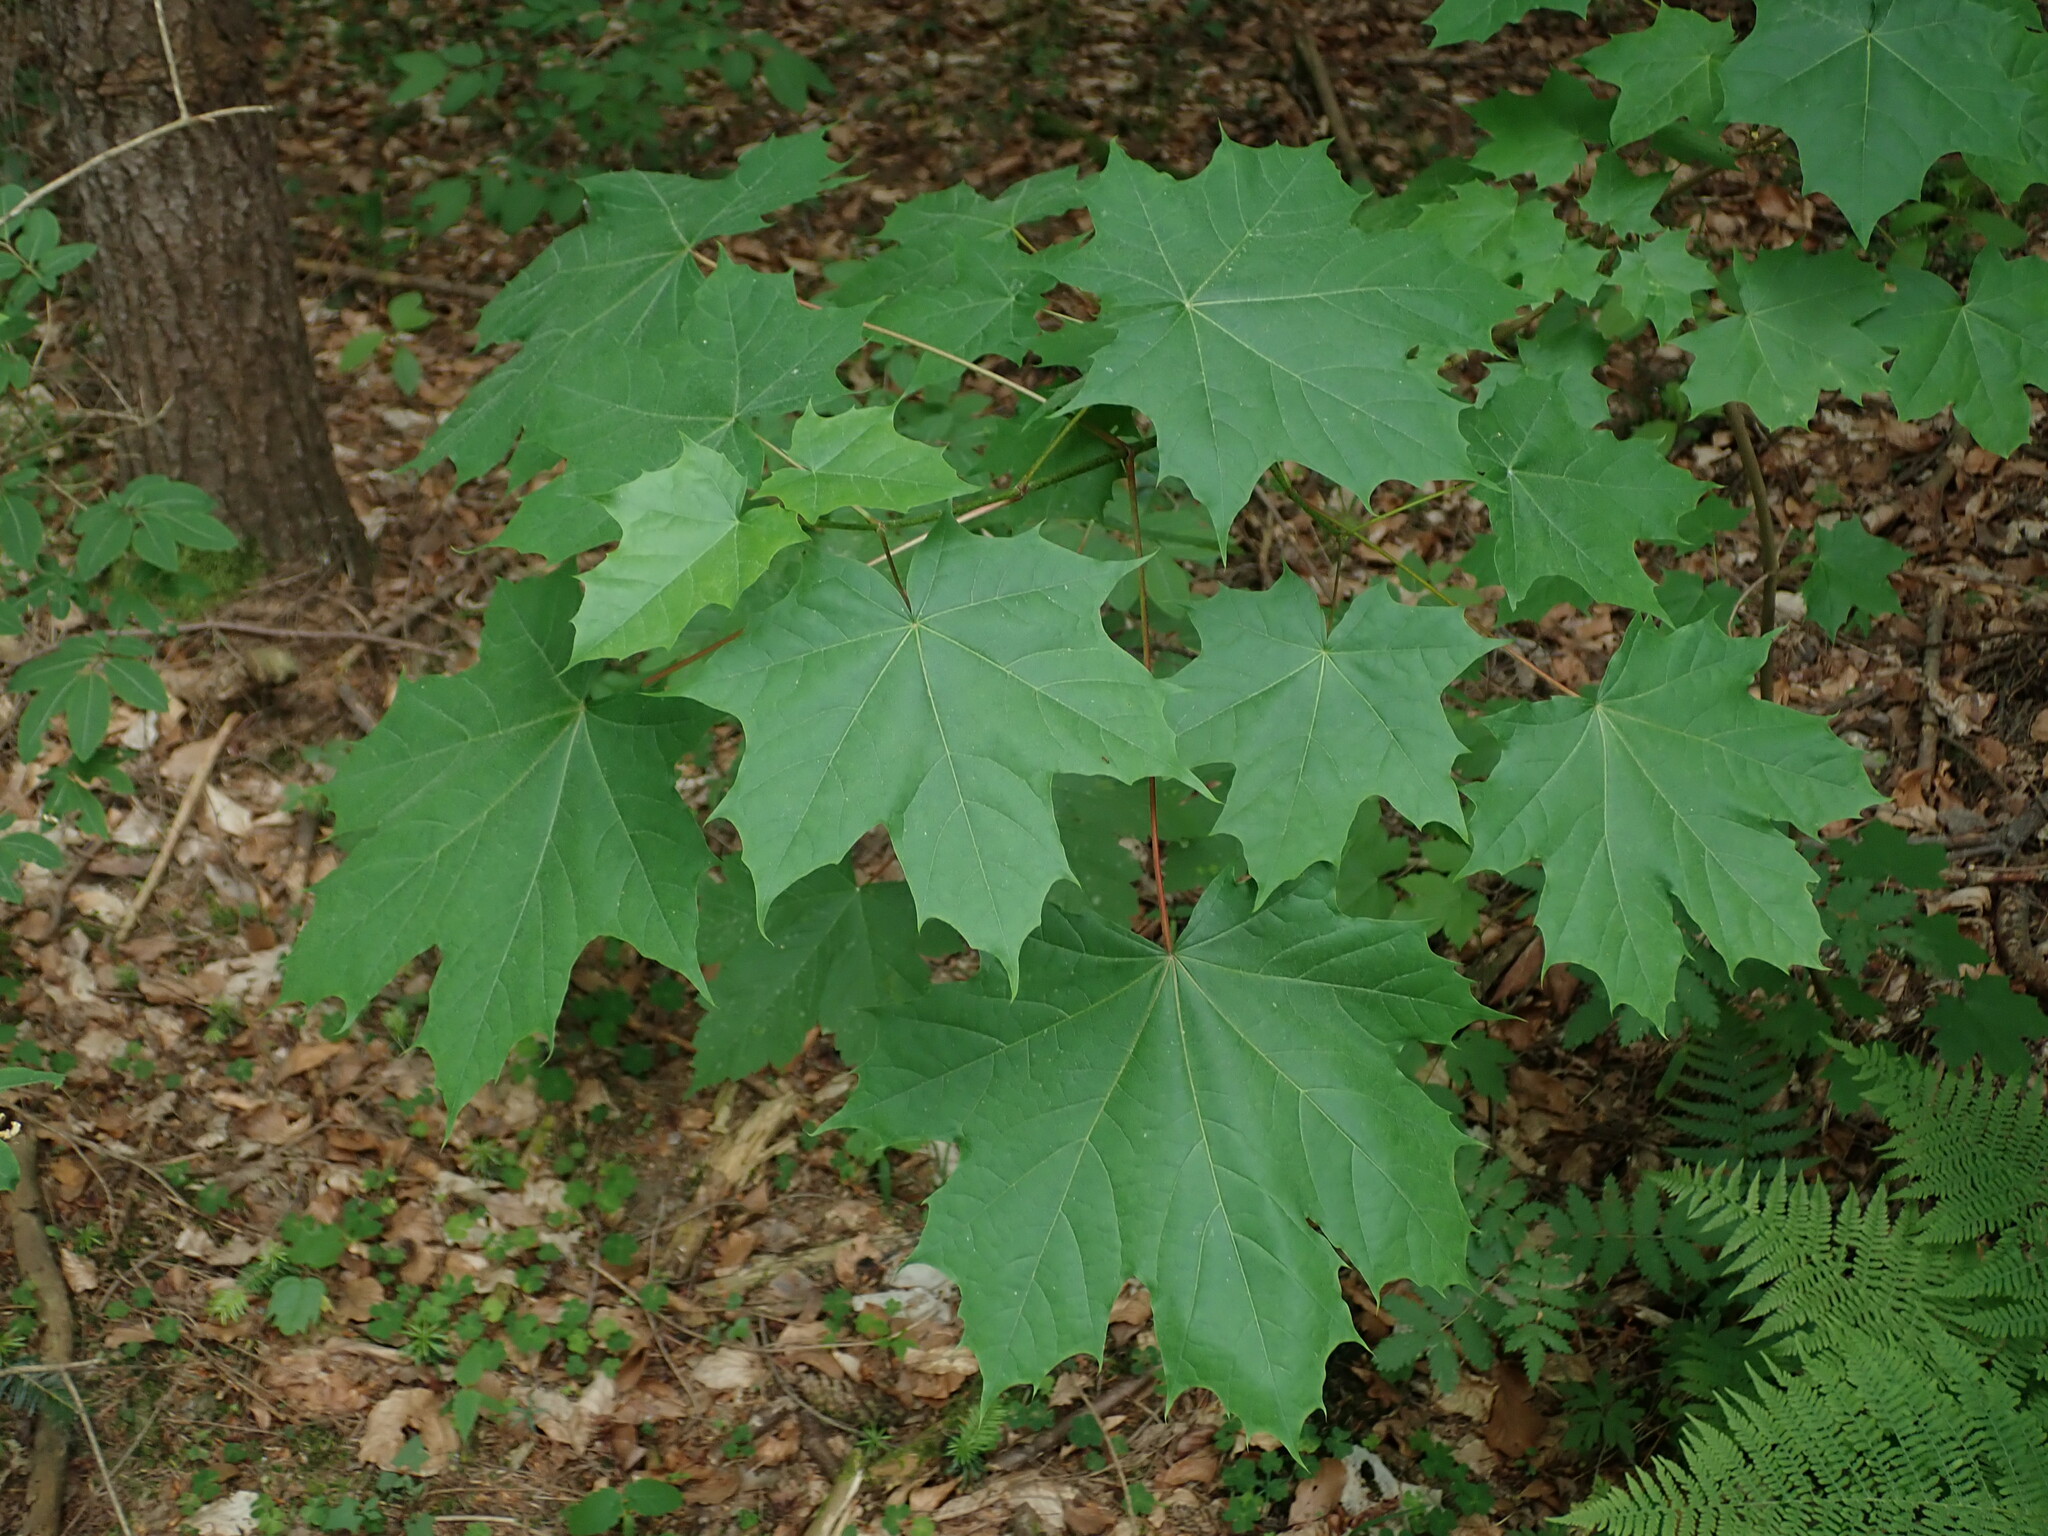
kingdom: Plantae
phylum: Tracheophyta
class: Magnoliopsida
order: Sapindales
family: Sapindaceae
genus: Acer
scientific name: Acer platanoides
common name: Norway maple
